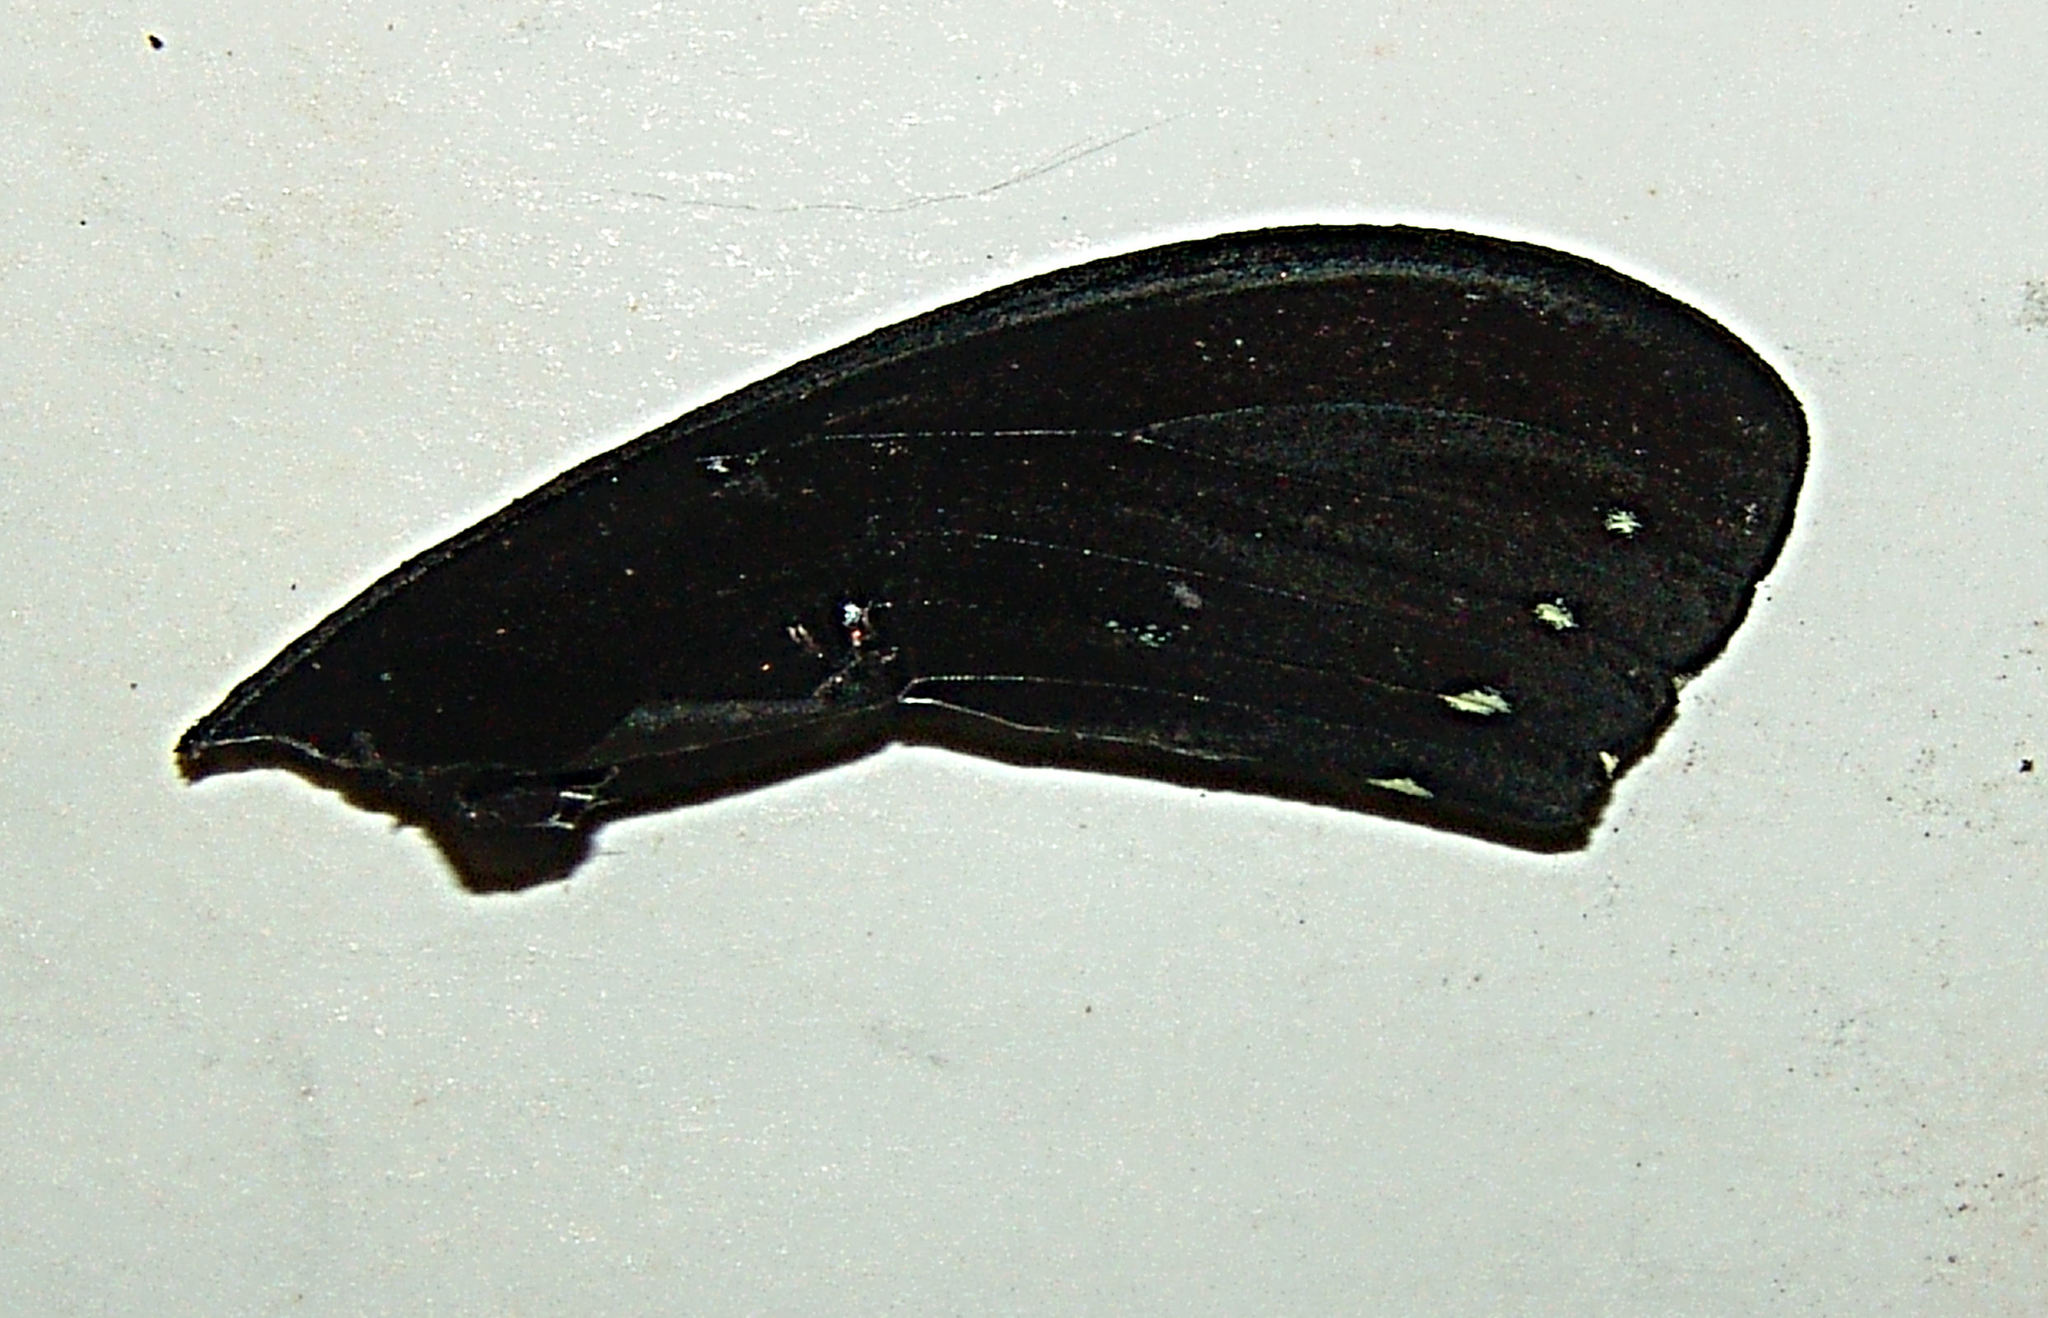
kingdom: Animalia
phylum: Arthropoda
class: Insecta
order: Lepidoptera
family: Papilionidae
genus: Papilio
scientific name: Papilio troilus
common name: Spicebush swallowtail
